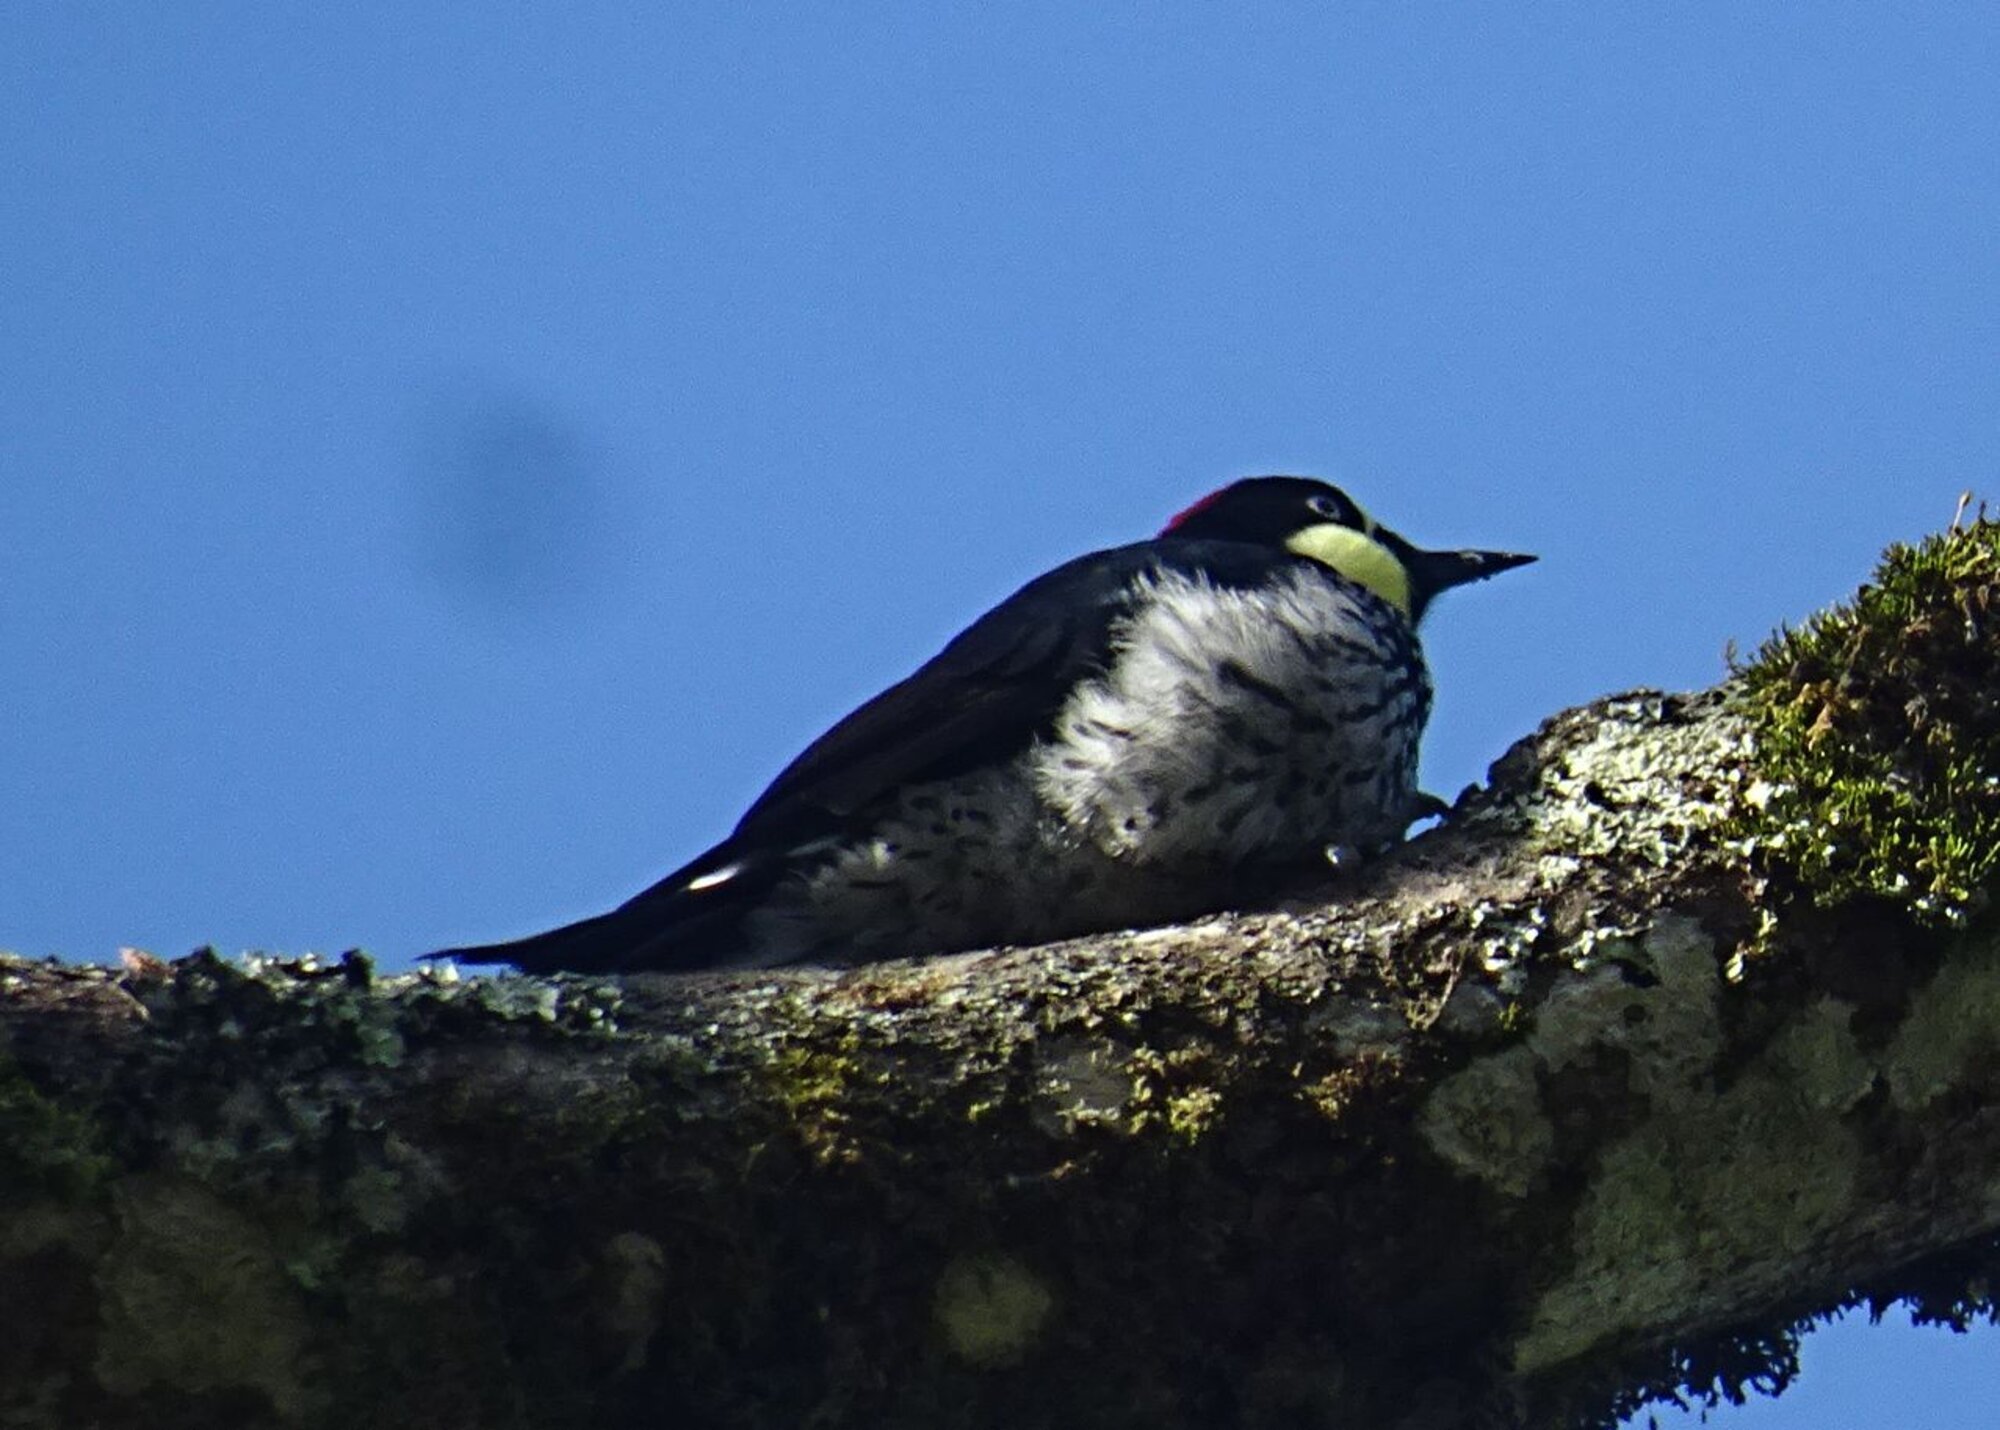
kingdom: Animalia
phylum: Chordata
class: Aves
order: Piciformes
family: Picidae
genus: Melanerpes
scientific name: Melanerpes formicivorus
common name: Acorn woodpecker
